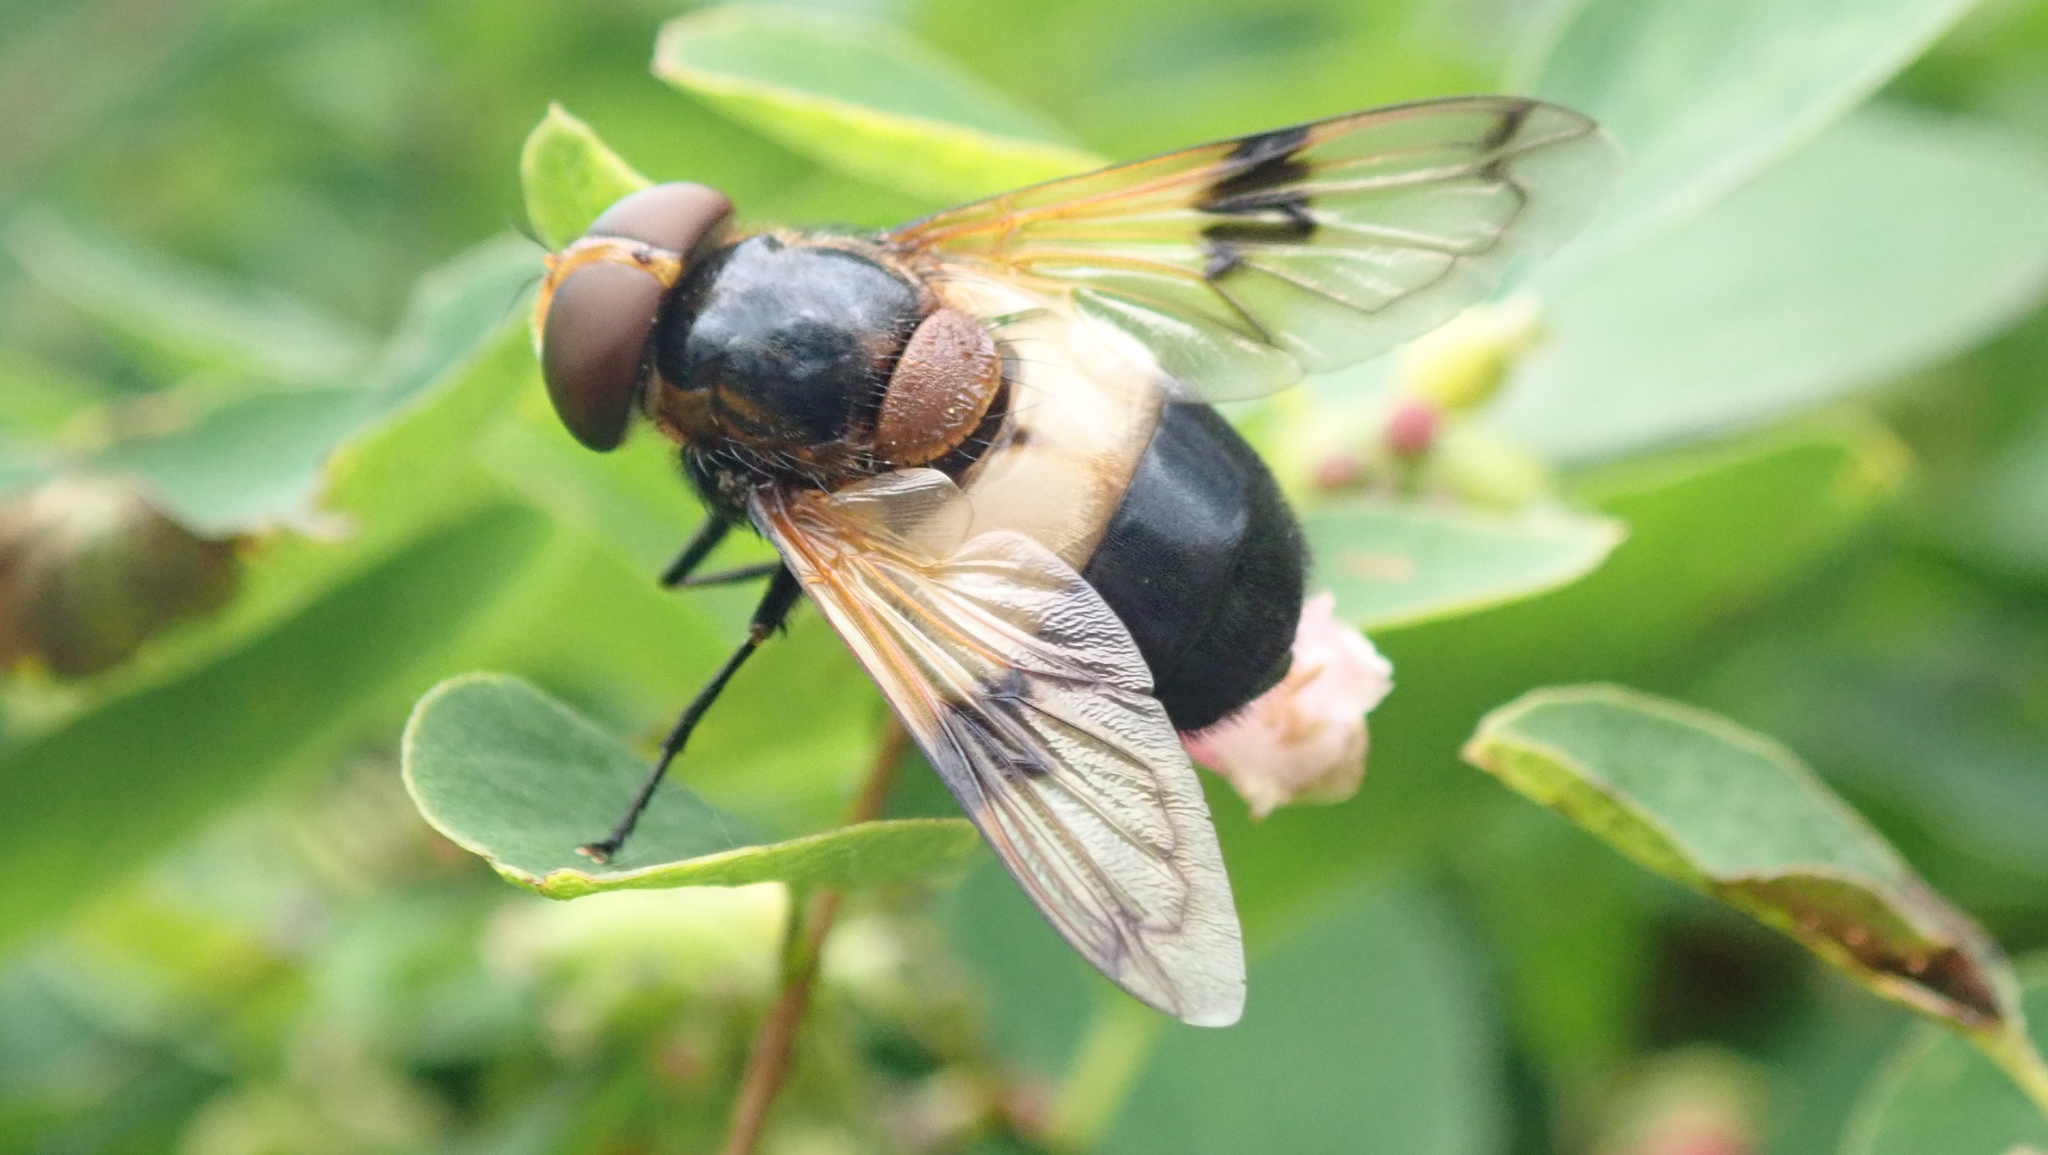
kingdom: Animalia
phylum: Arthropoda
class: Insecta
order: Diptera
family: Syrphidae
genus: Volucella
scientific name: Volucella pellucens
